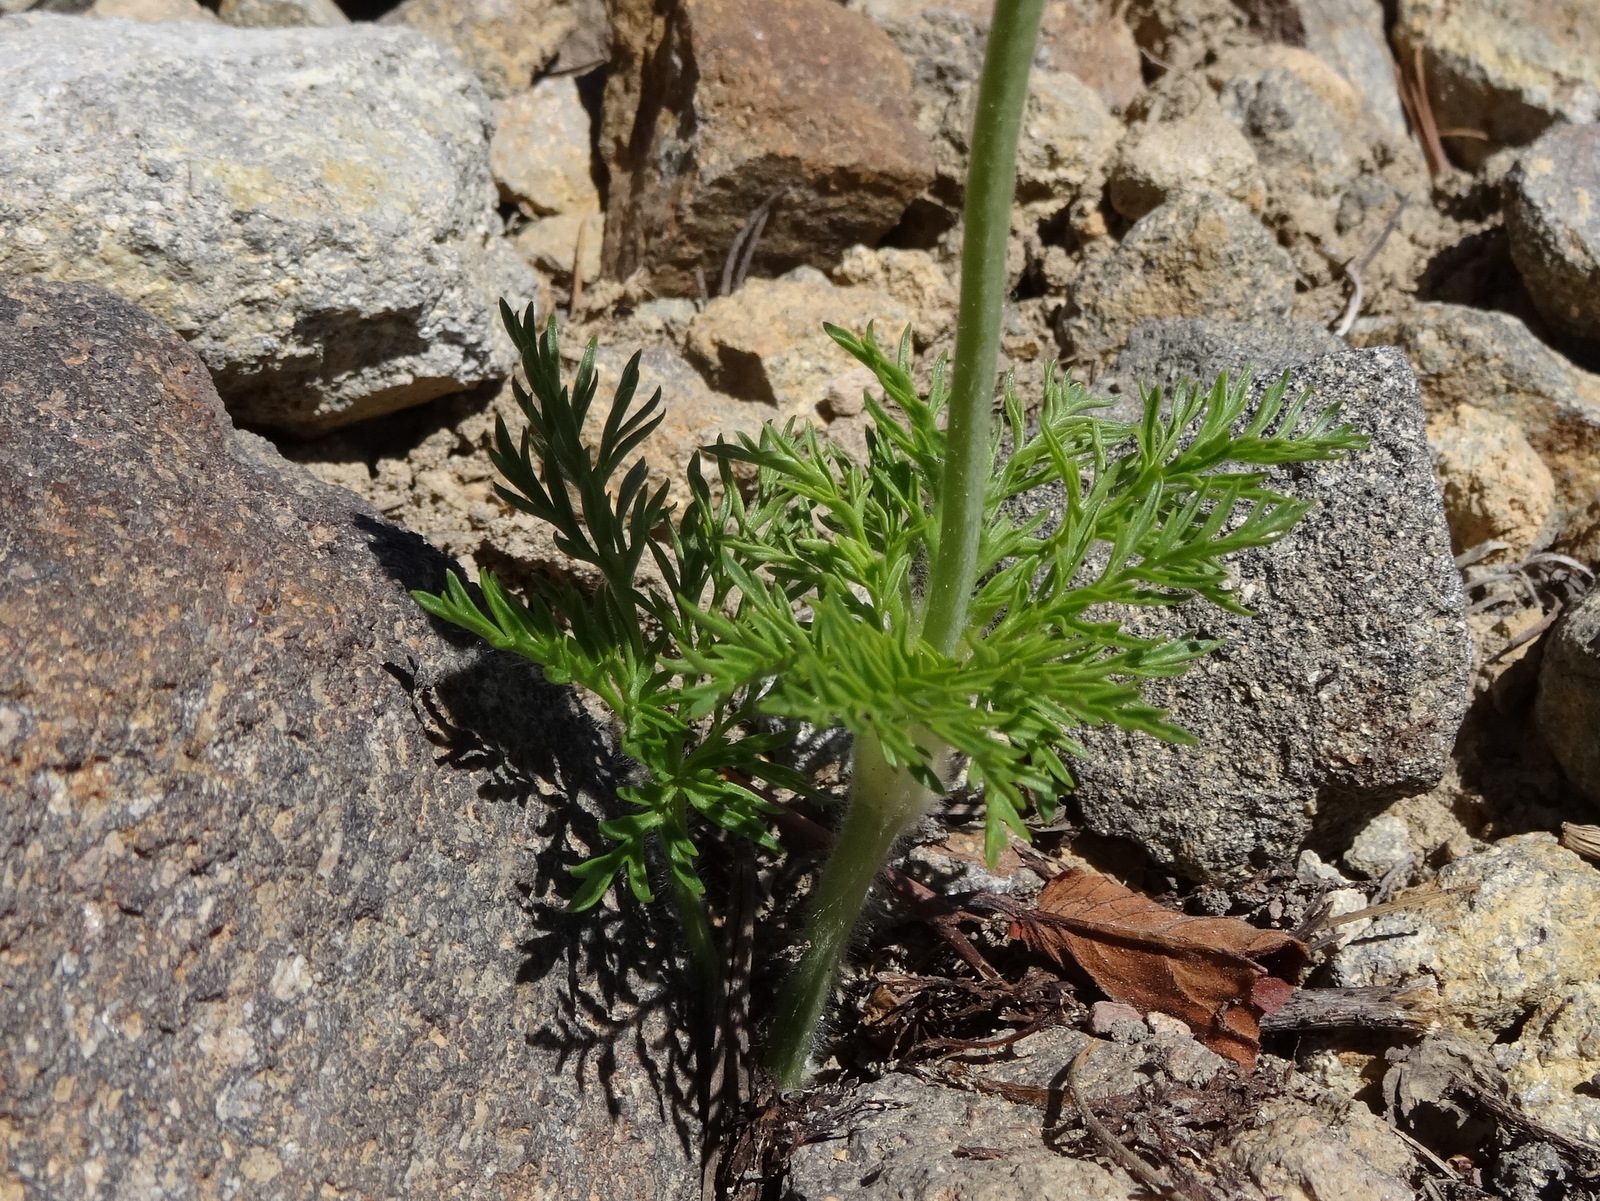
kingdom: Plantae
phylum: Tracheophyta
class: Magnoliopsida
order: Ranunculales
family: Ranunculaceae
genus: Pulsatilla
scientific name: Pulsatilla occidentalis
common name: Mountain pasqueflower
